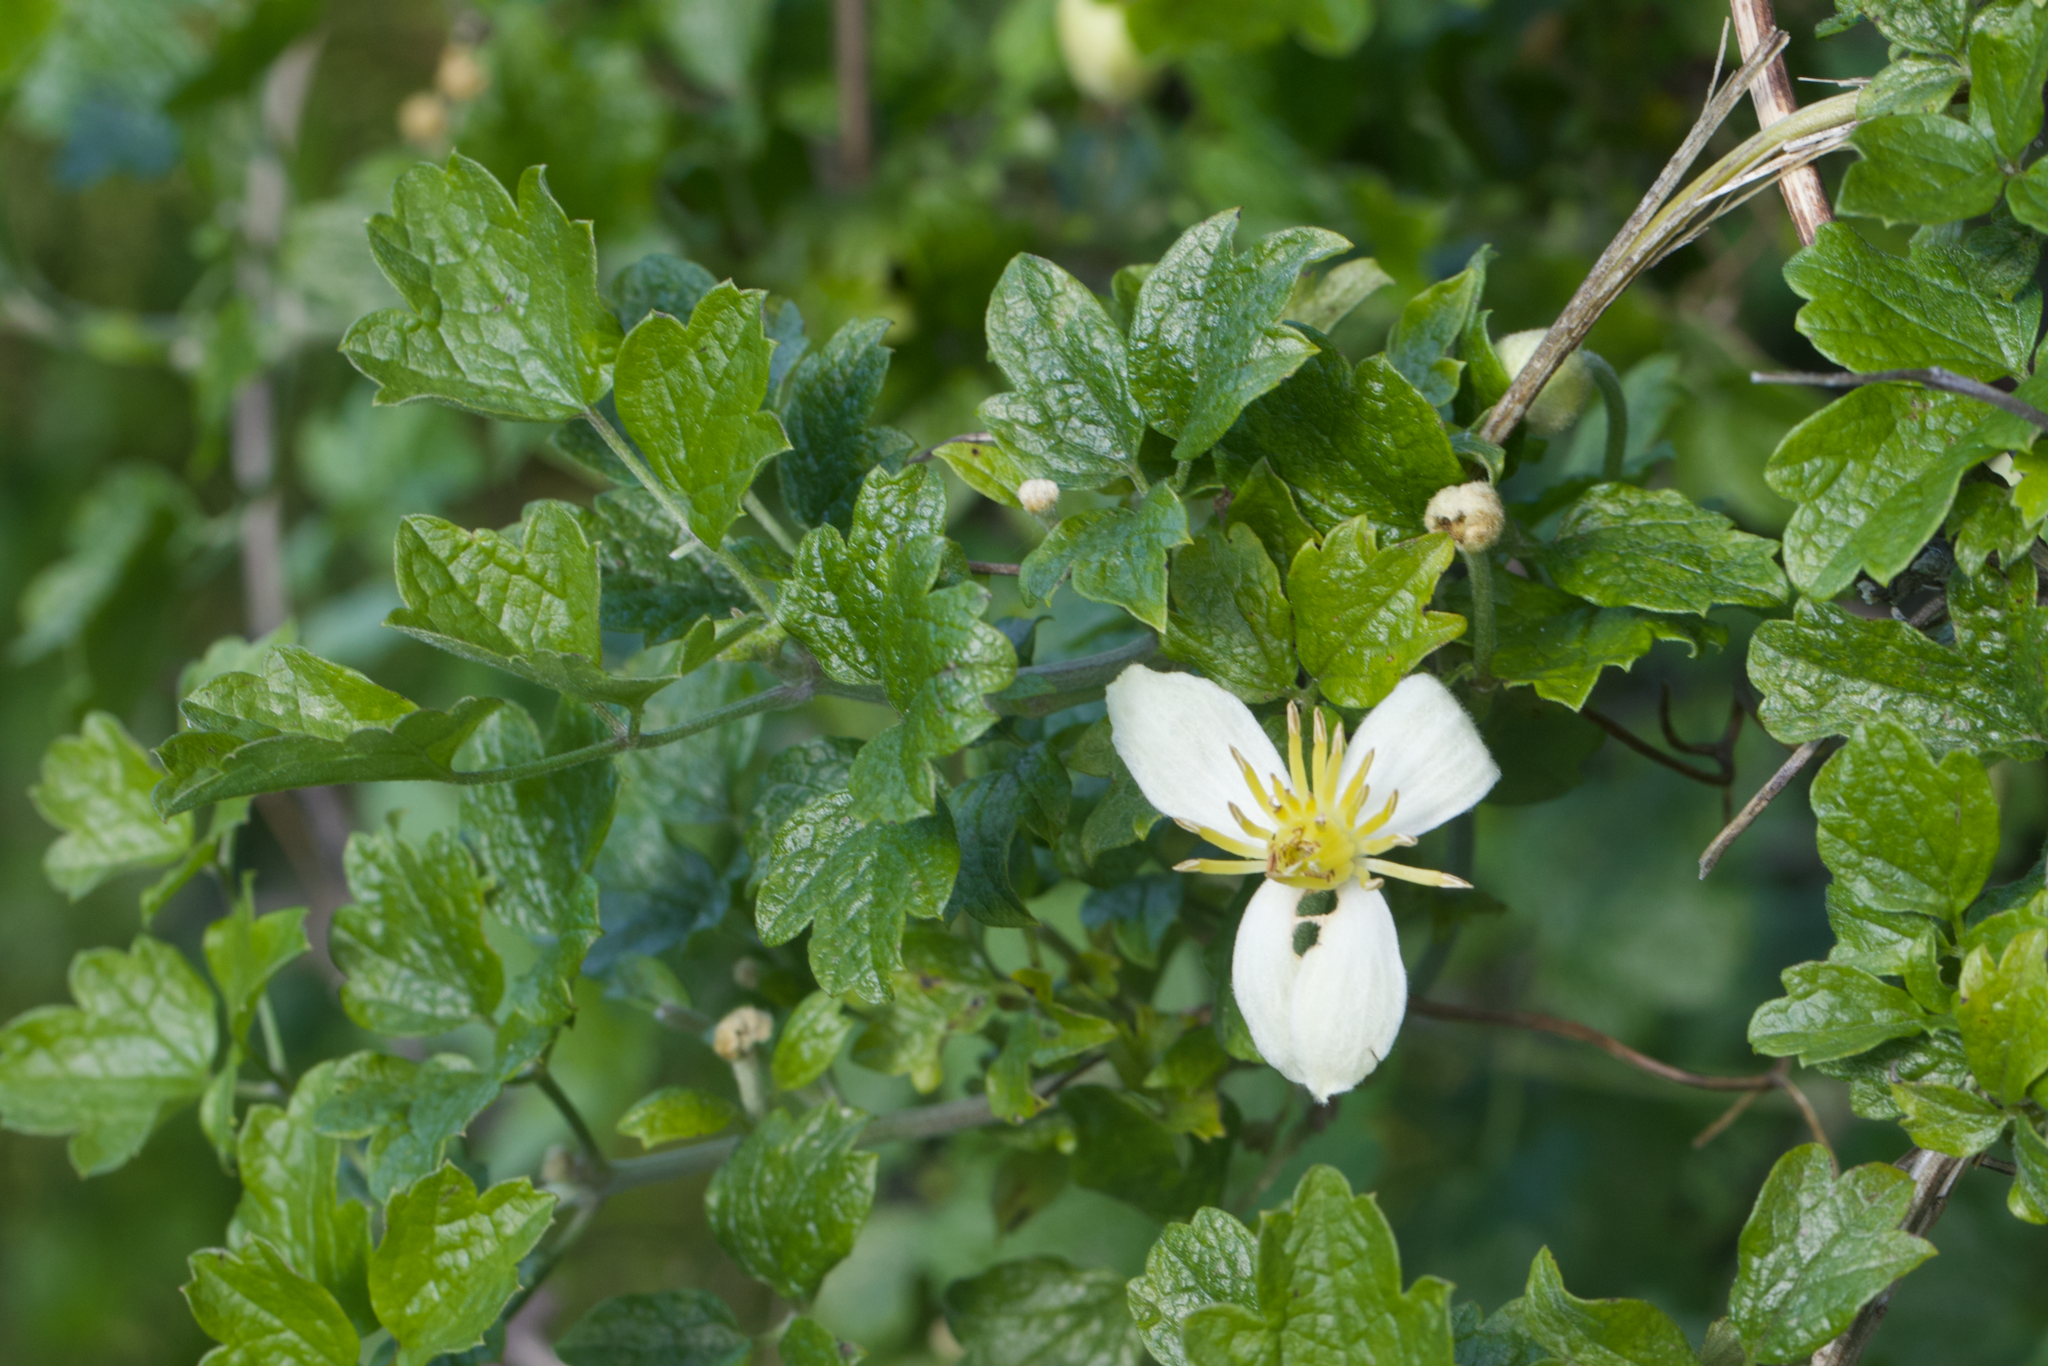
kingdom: Plantae
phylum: Tracheophyta
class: Magnoliopsida
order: Ranunculales
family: Ranunculaceae
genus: Clematis
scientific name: Clematis lasiantha
